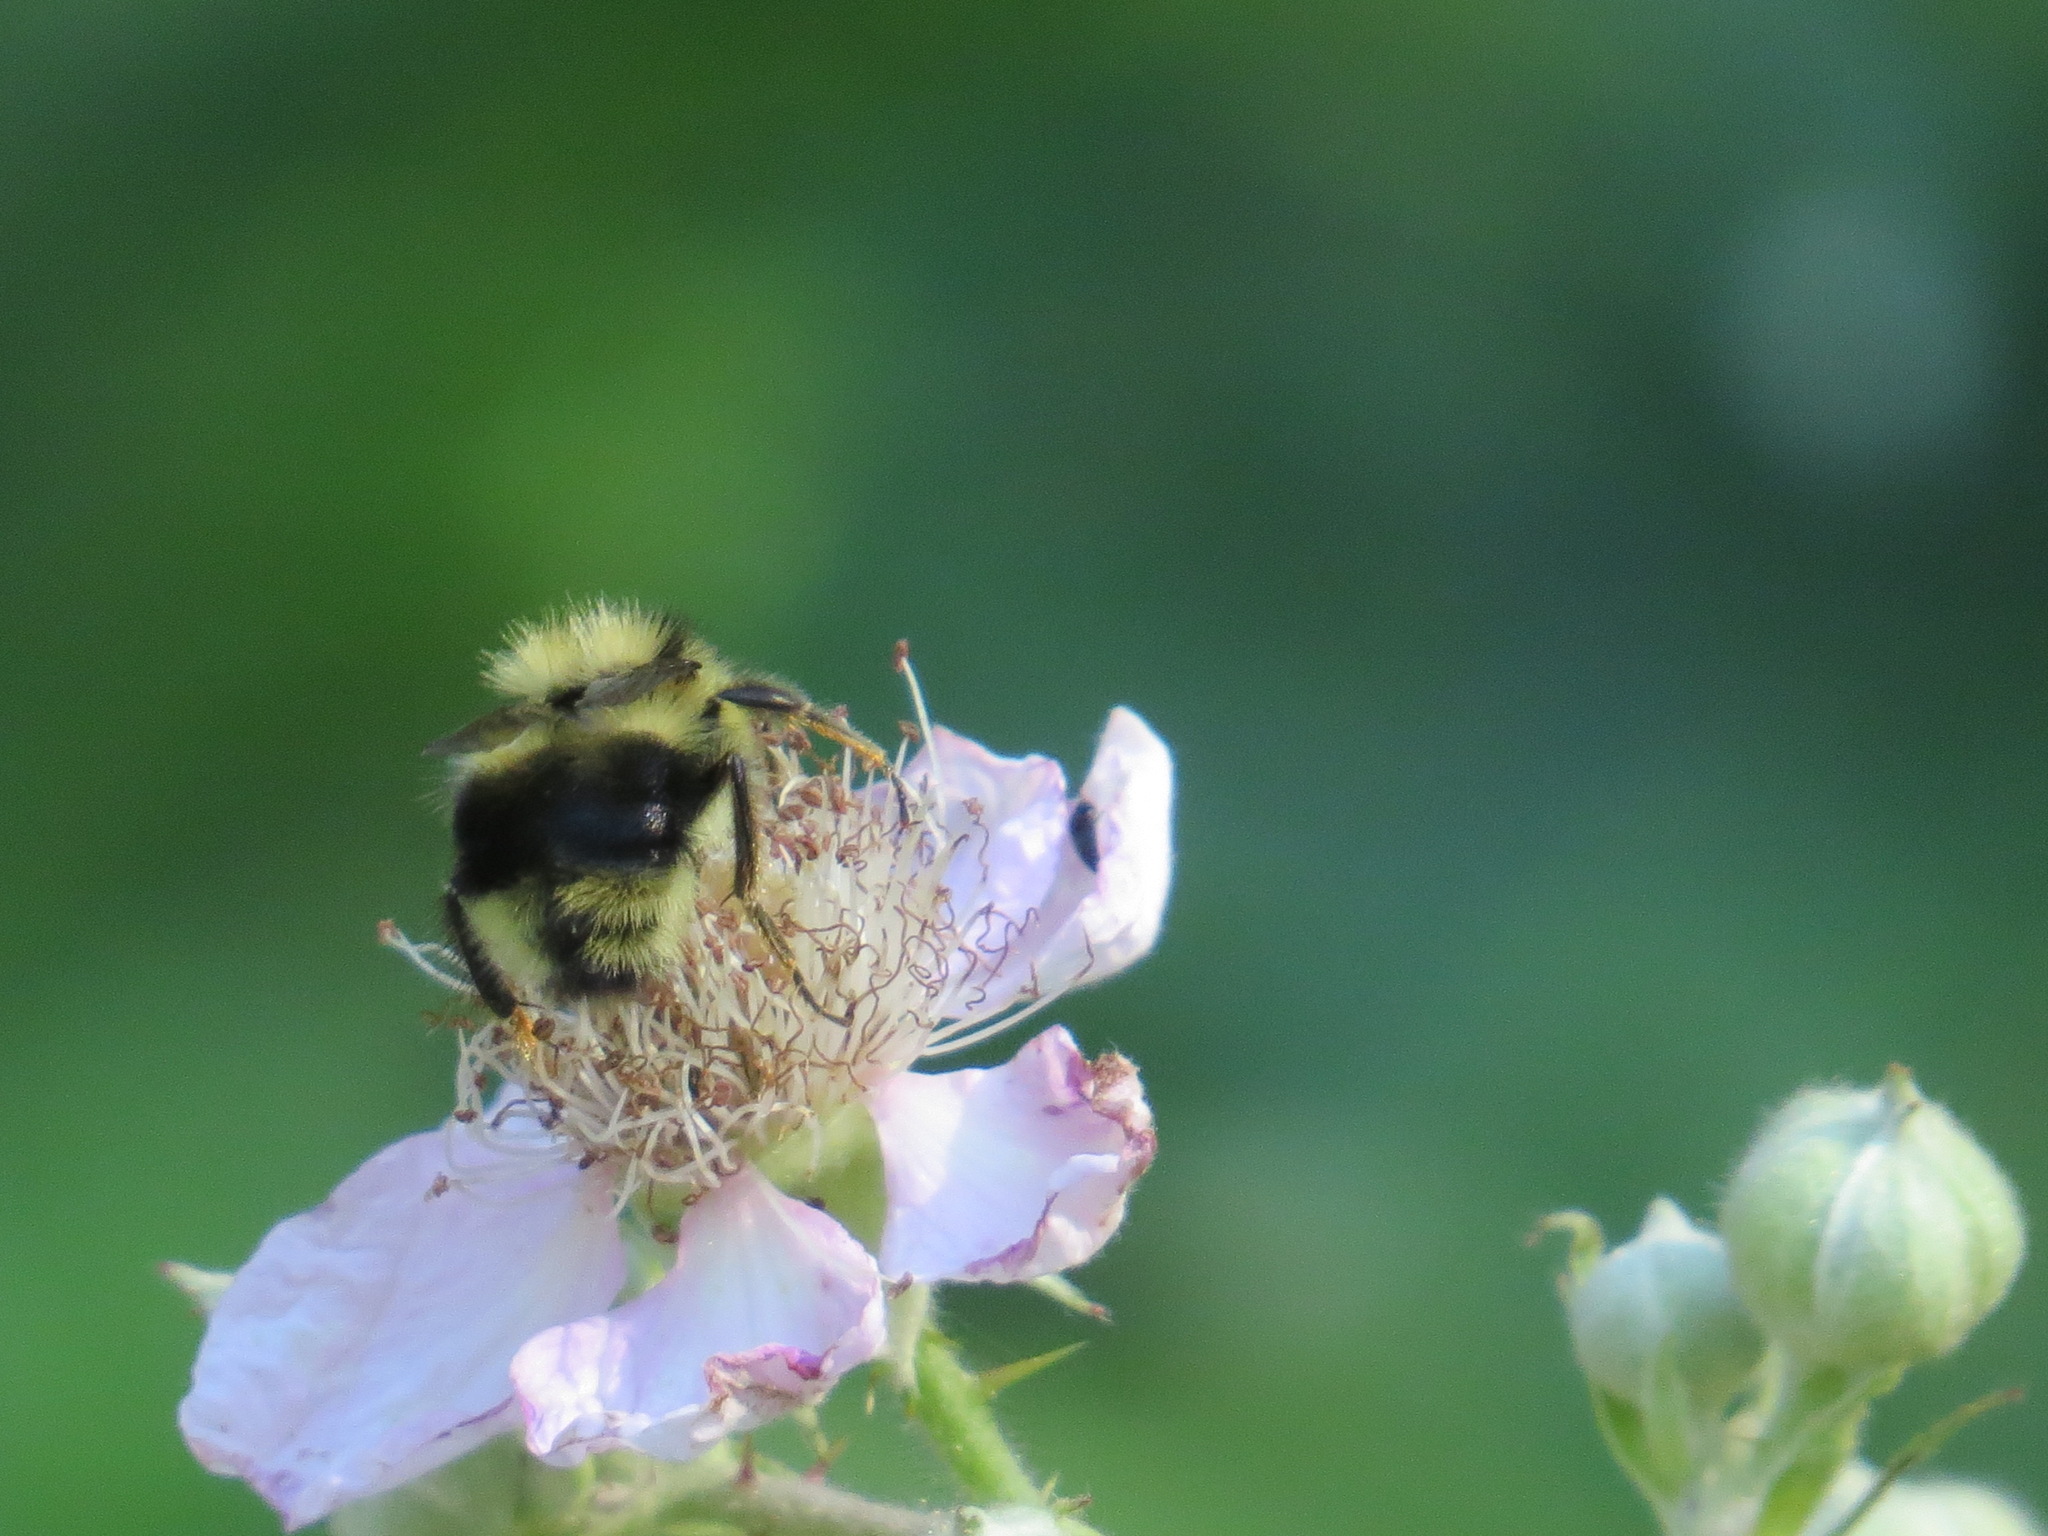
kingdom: Animalia
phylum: Arthropoda
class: Insecta
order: Hymenoptera
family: Apidae
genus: Bombus
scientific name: Bombus melanopygus
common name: Black tail bumble bee
